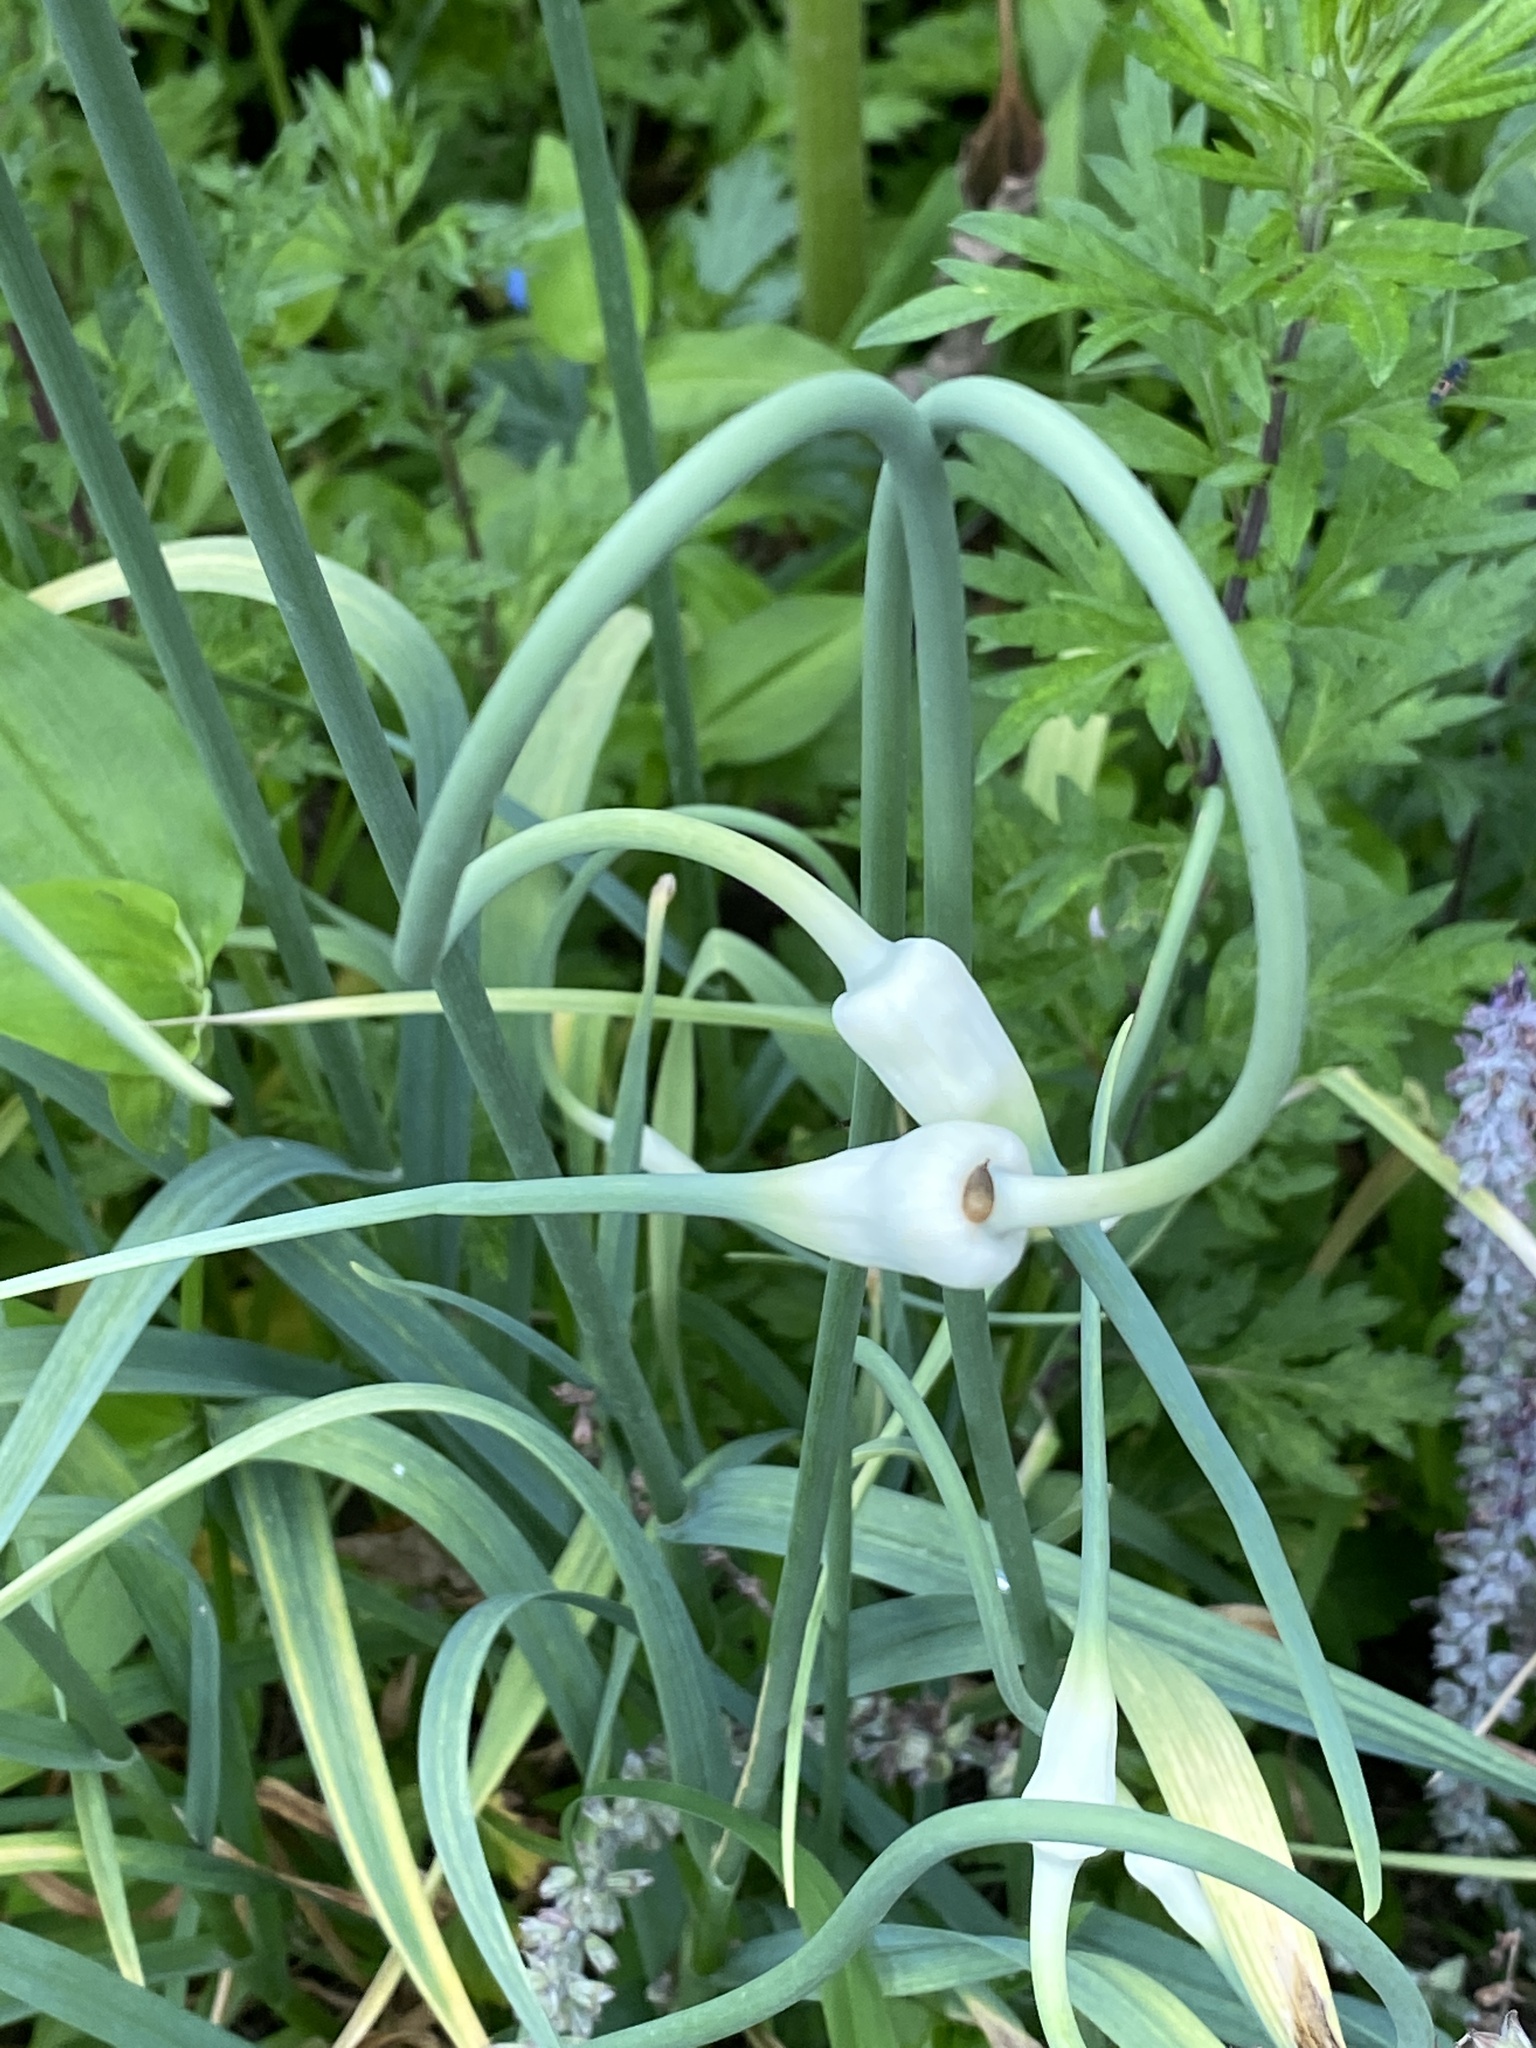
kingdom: Plantae
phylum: Tracheophyta
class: Liliopsida
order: Asparagales
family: Amaryllidaceae
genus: Allium
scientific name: Allium sativum
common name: Garlic
